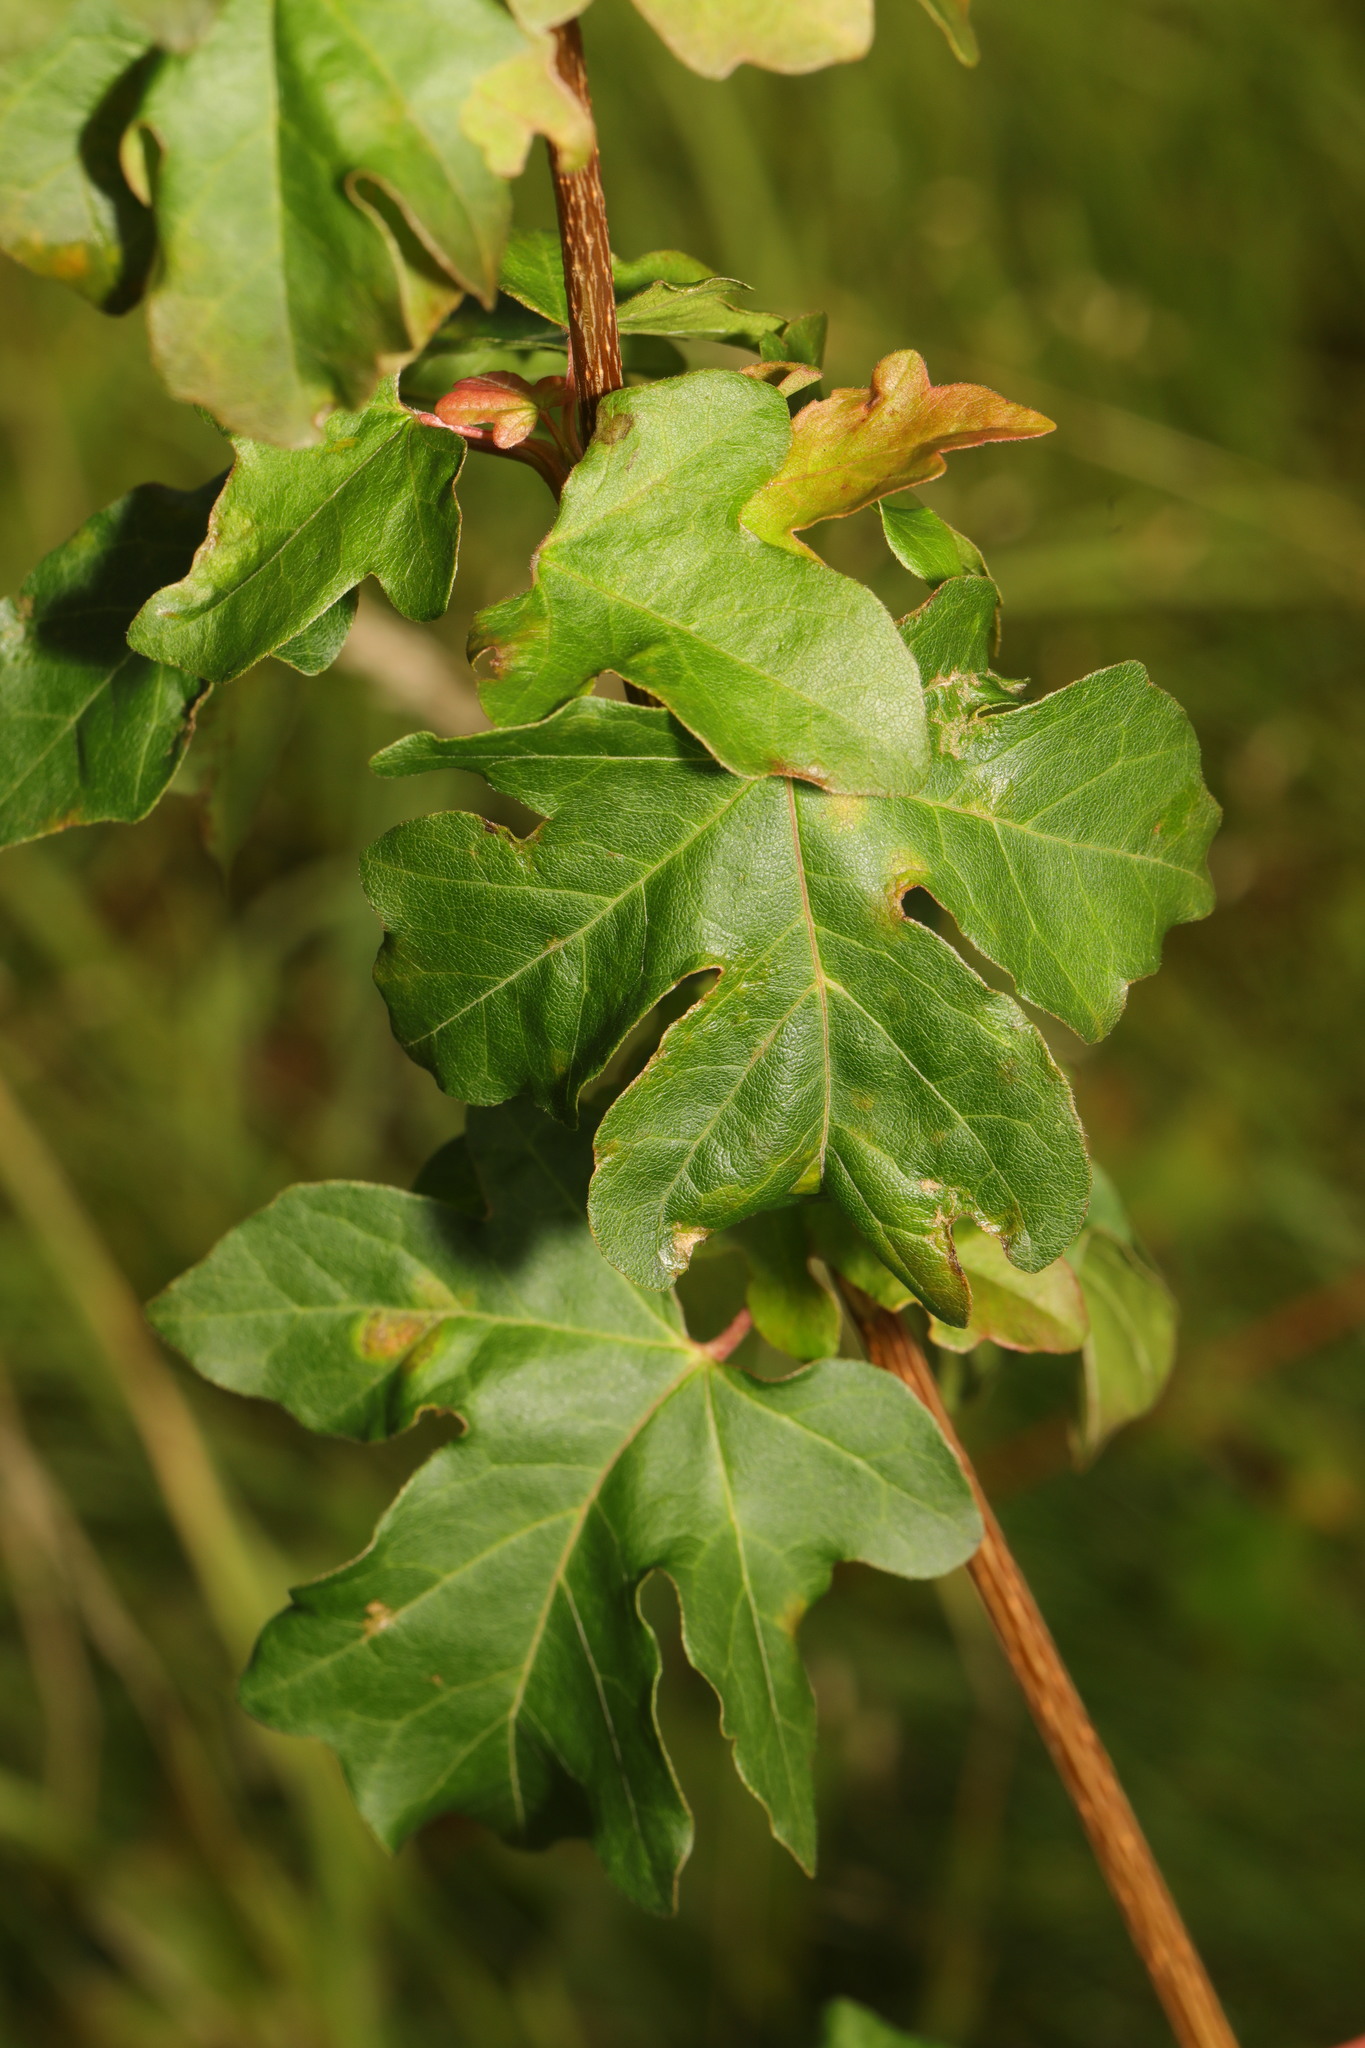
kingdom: Plantae
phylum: Tracheophyta
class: Magnoliopsida
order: Sapindales
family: Sapindaceae
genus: Acer
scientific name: Acer campestre
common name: Field maple
